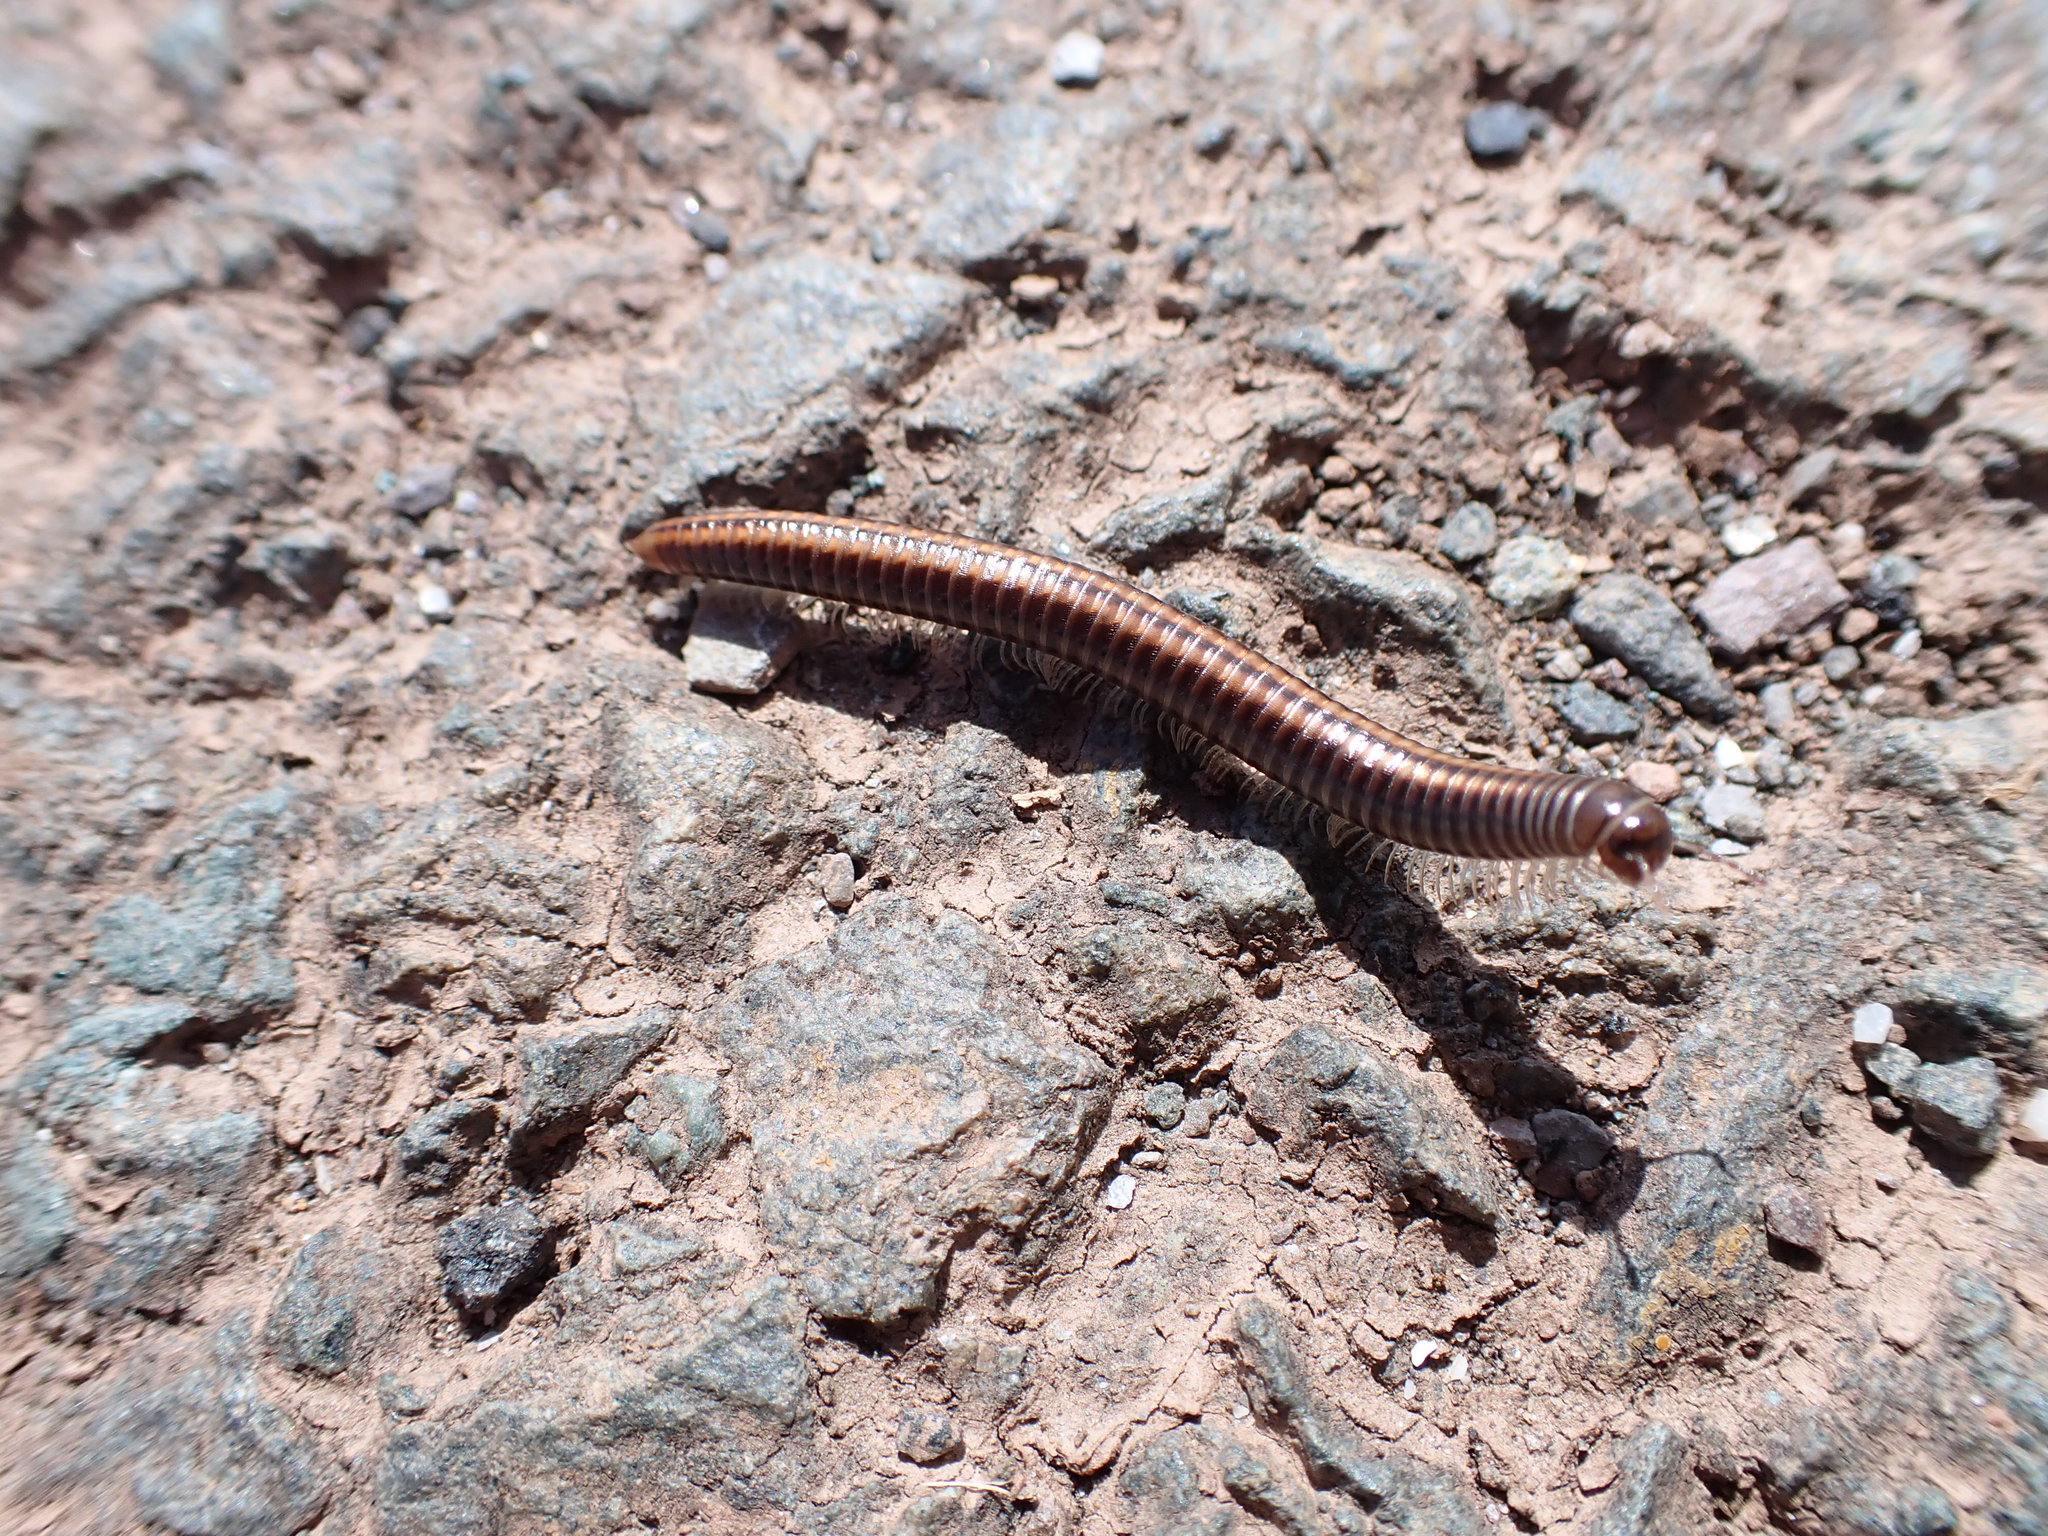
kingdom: Animalia
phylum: Arthropoda
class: Diplopoda
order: Julida
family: Julidae
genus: Ommatoiulus
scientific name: Ommatoiulus sabulosus
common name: Striped millipede
